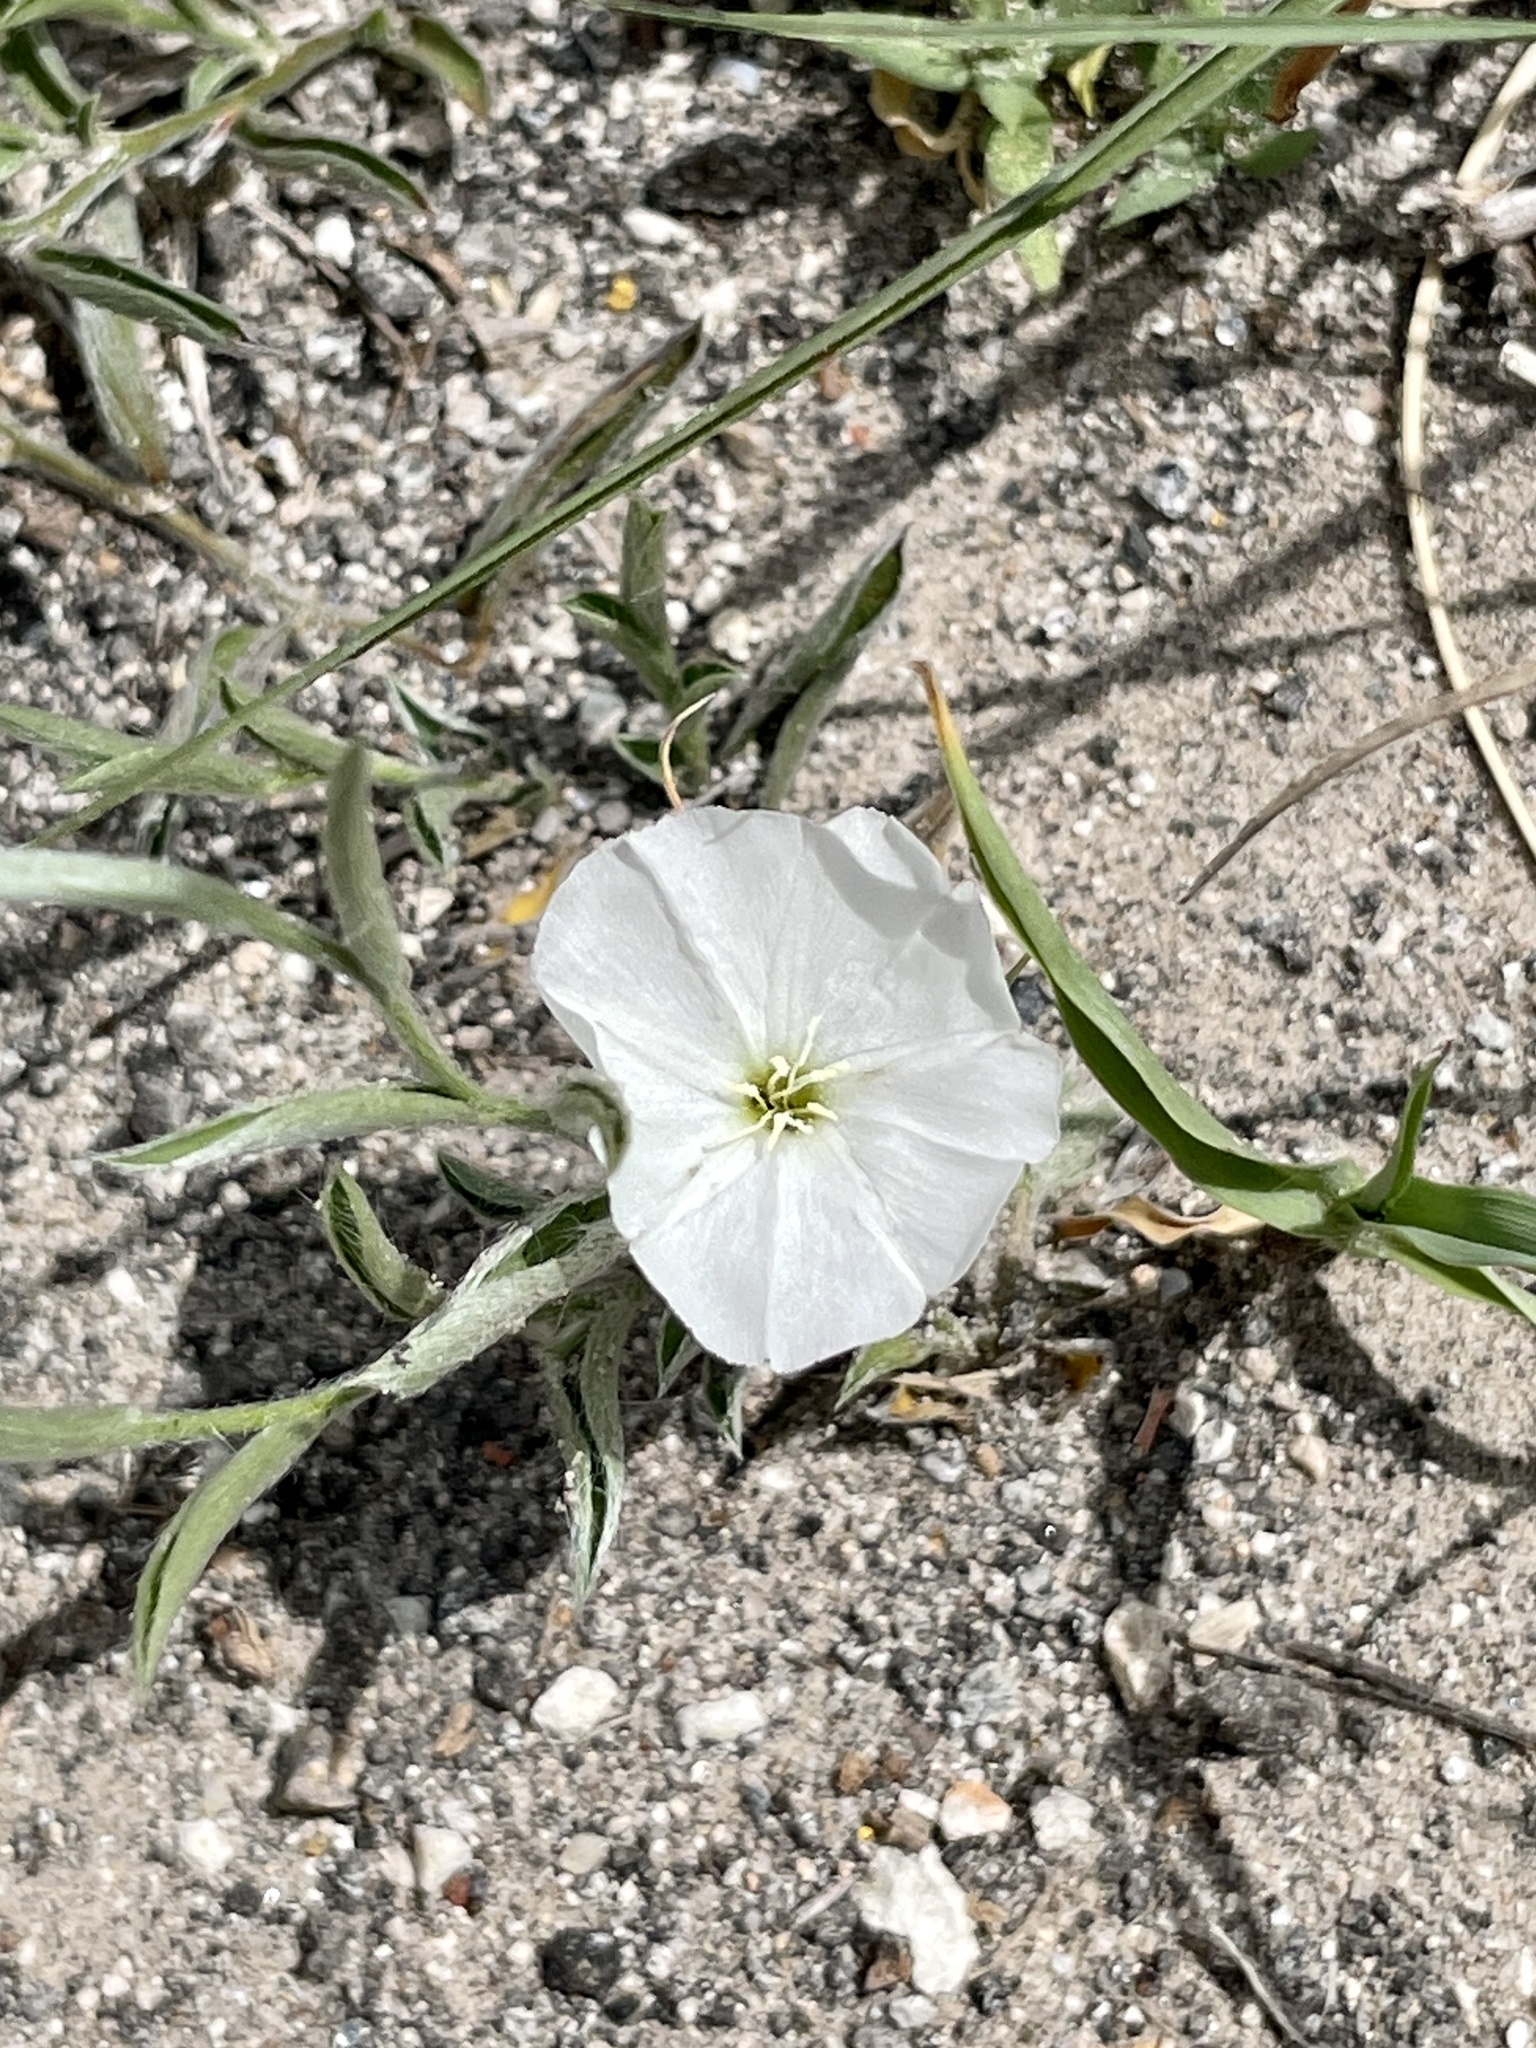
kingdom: Plantae
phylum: Tracheophyta
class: Magnoliopsida
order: Solanales
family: Convolvulaceae
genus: Evolvulus
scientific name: Evolvulus sericeus
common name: Blue dots
